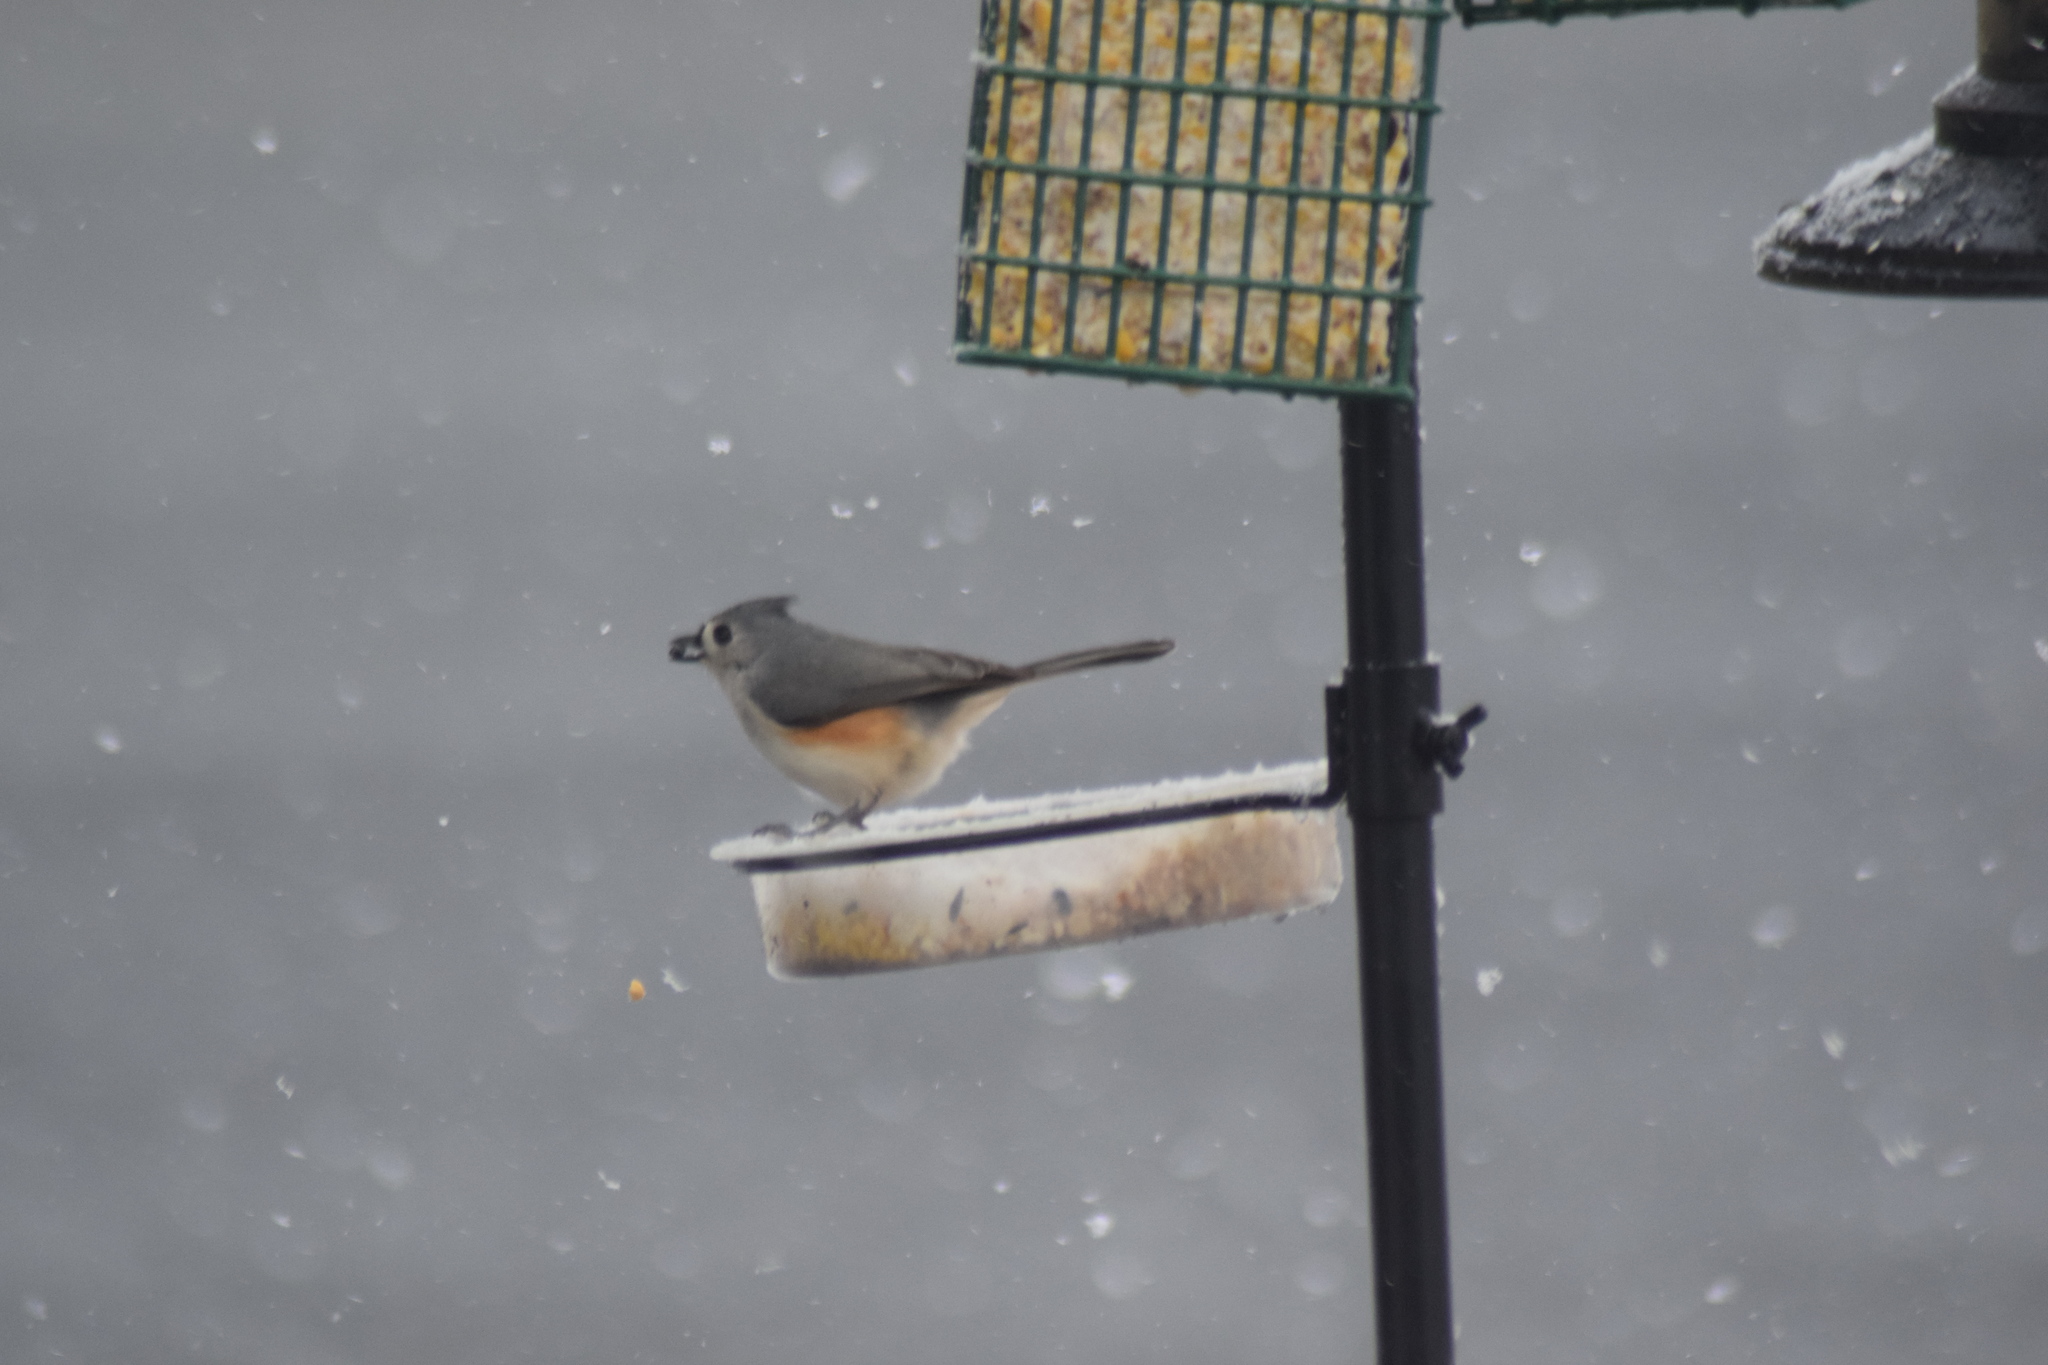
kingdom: Animalia
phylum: Chordata
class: Aves
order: Passeriformes
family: Paridae
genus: Baeolophus
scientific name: Baeolophus bicolor
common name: Tufted titmouse
